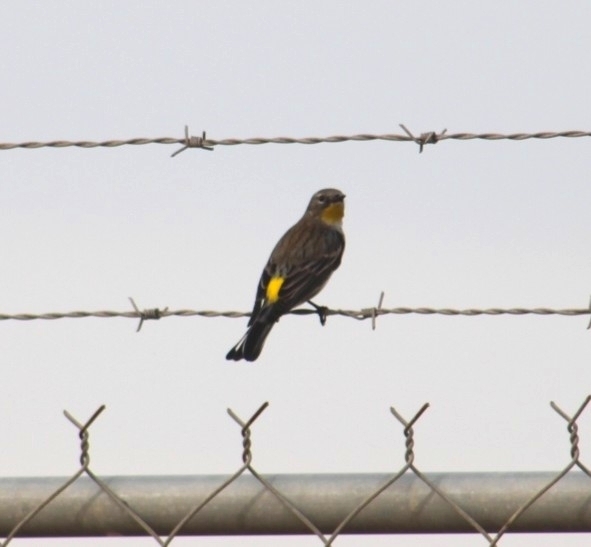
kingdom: Animalia
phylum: Chordata
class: Aves
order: Passeriformes
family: Parulidae
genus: Setophaga
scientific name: Setophaga auduboni
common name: Audubon's warbler
